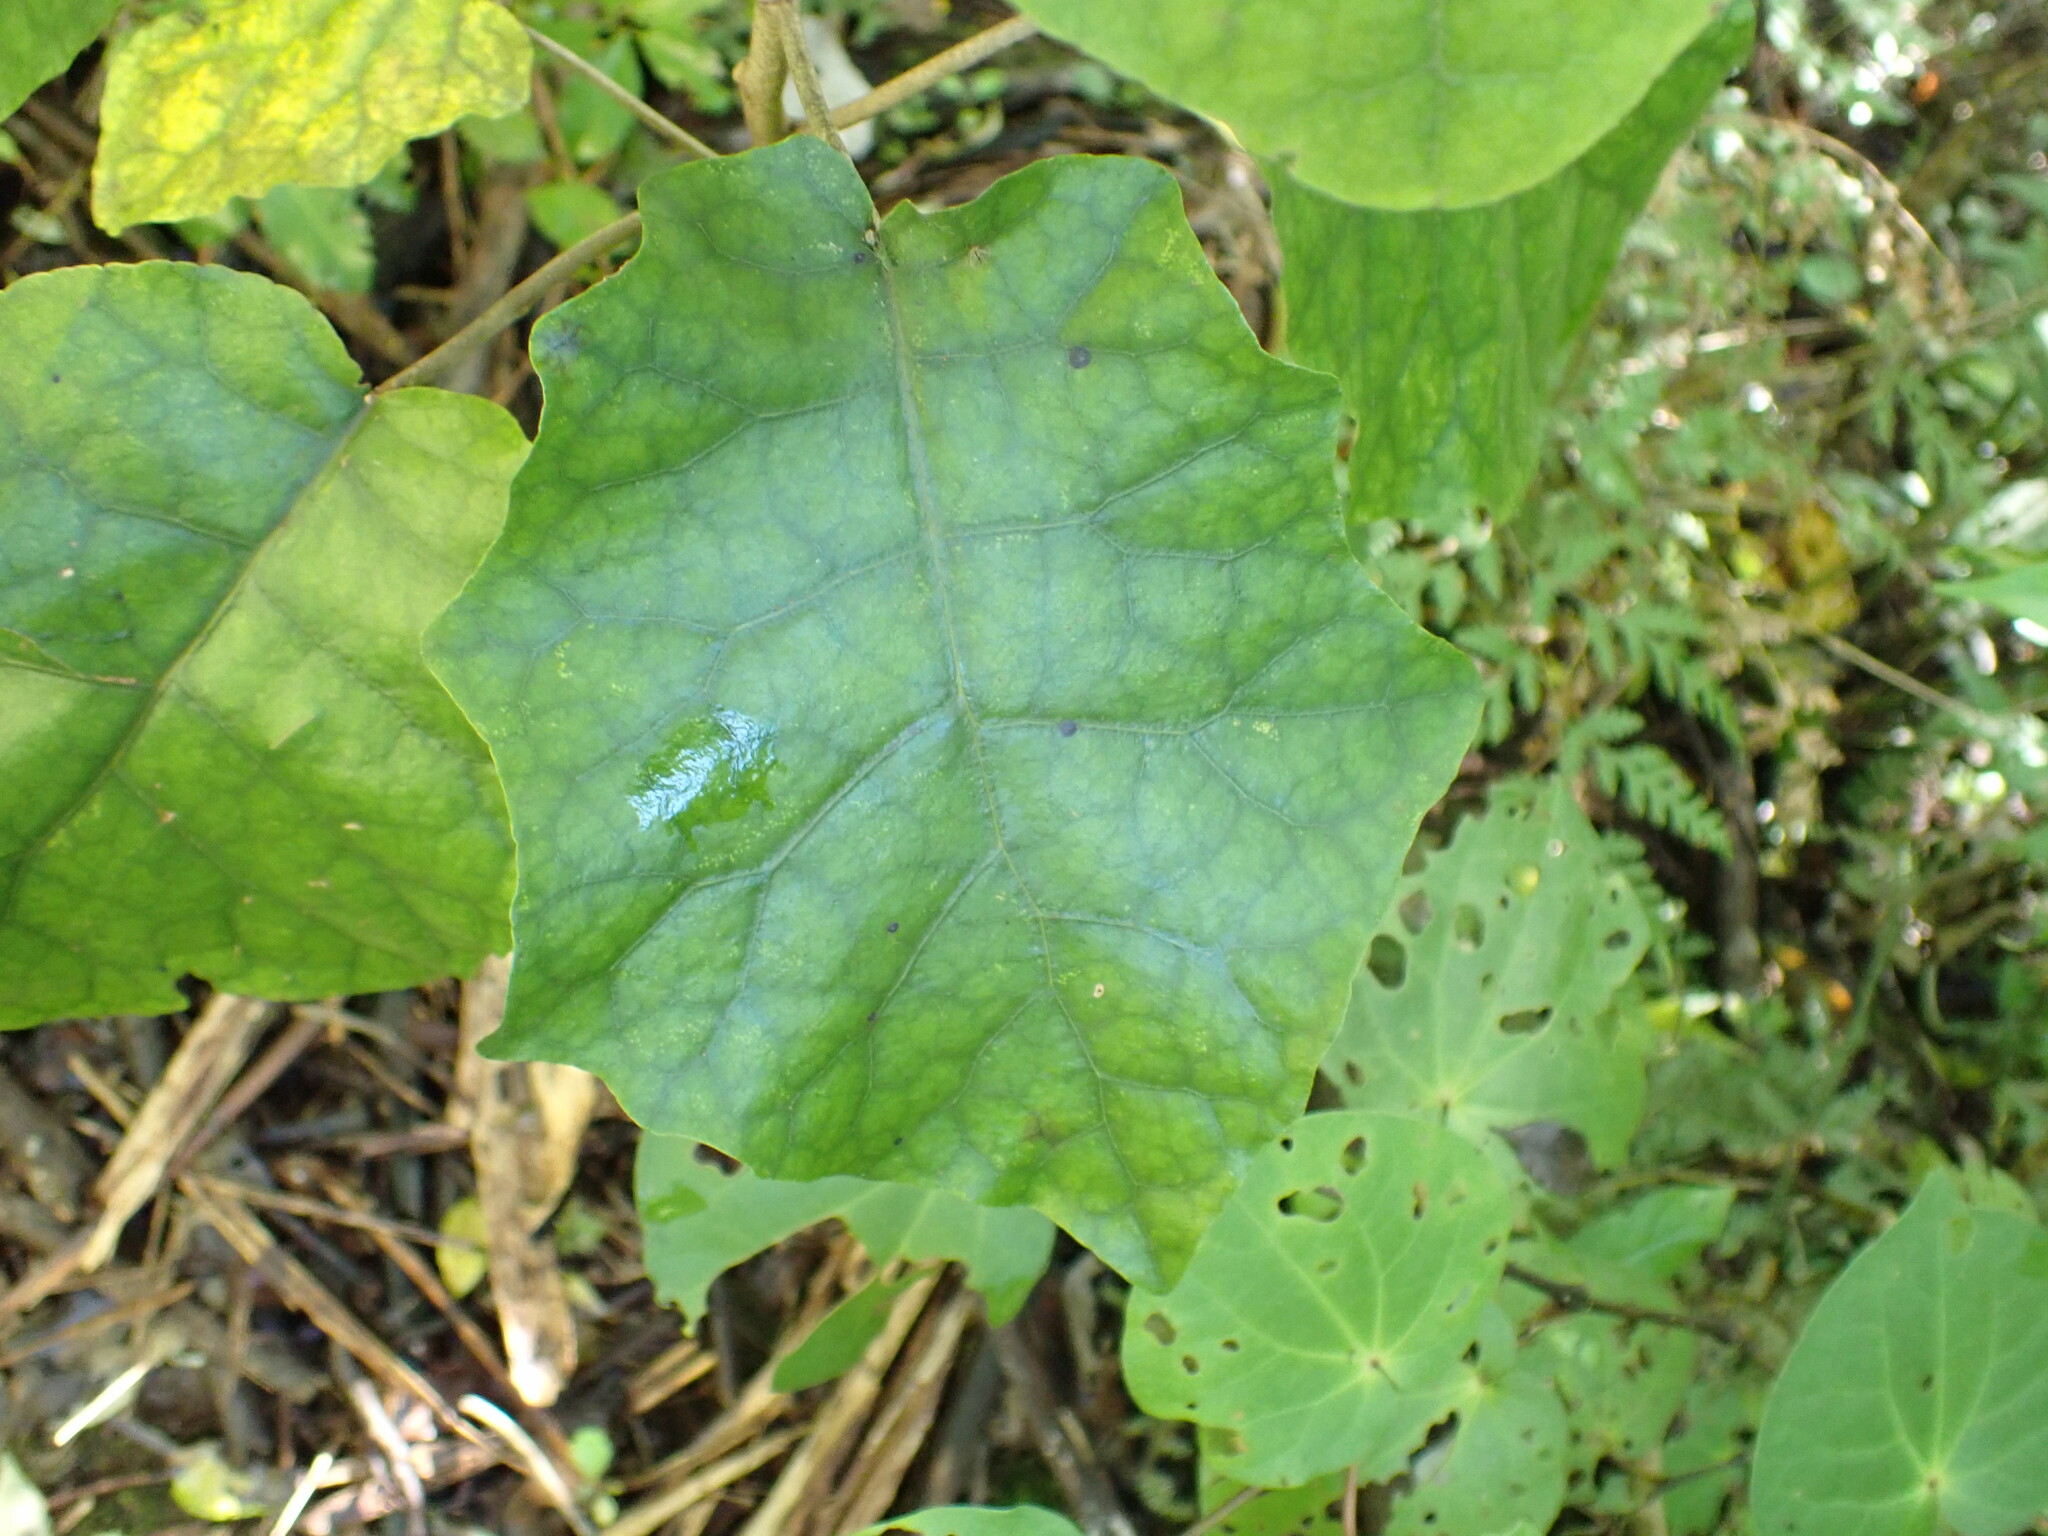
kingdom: Plantae
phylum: Tracheophyta
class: Magnoliopsida
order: Asterales
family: Asteraceae
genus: Brachyglottis
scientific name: Brachyglottis repanda
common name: Hedge ragwort
